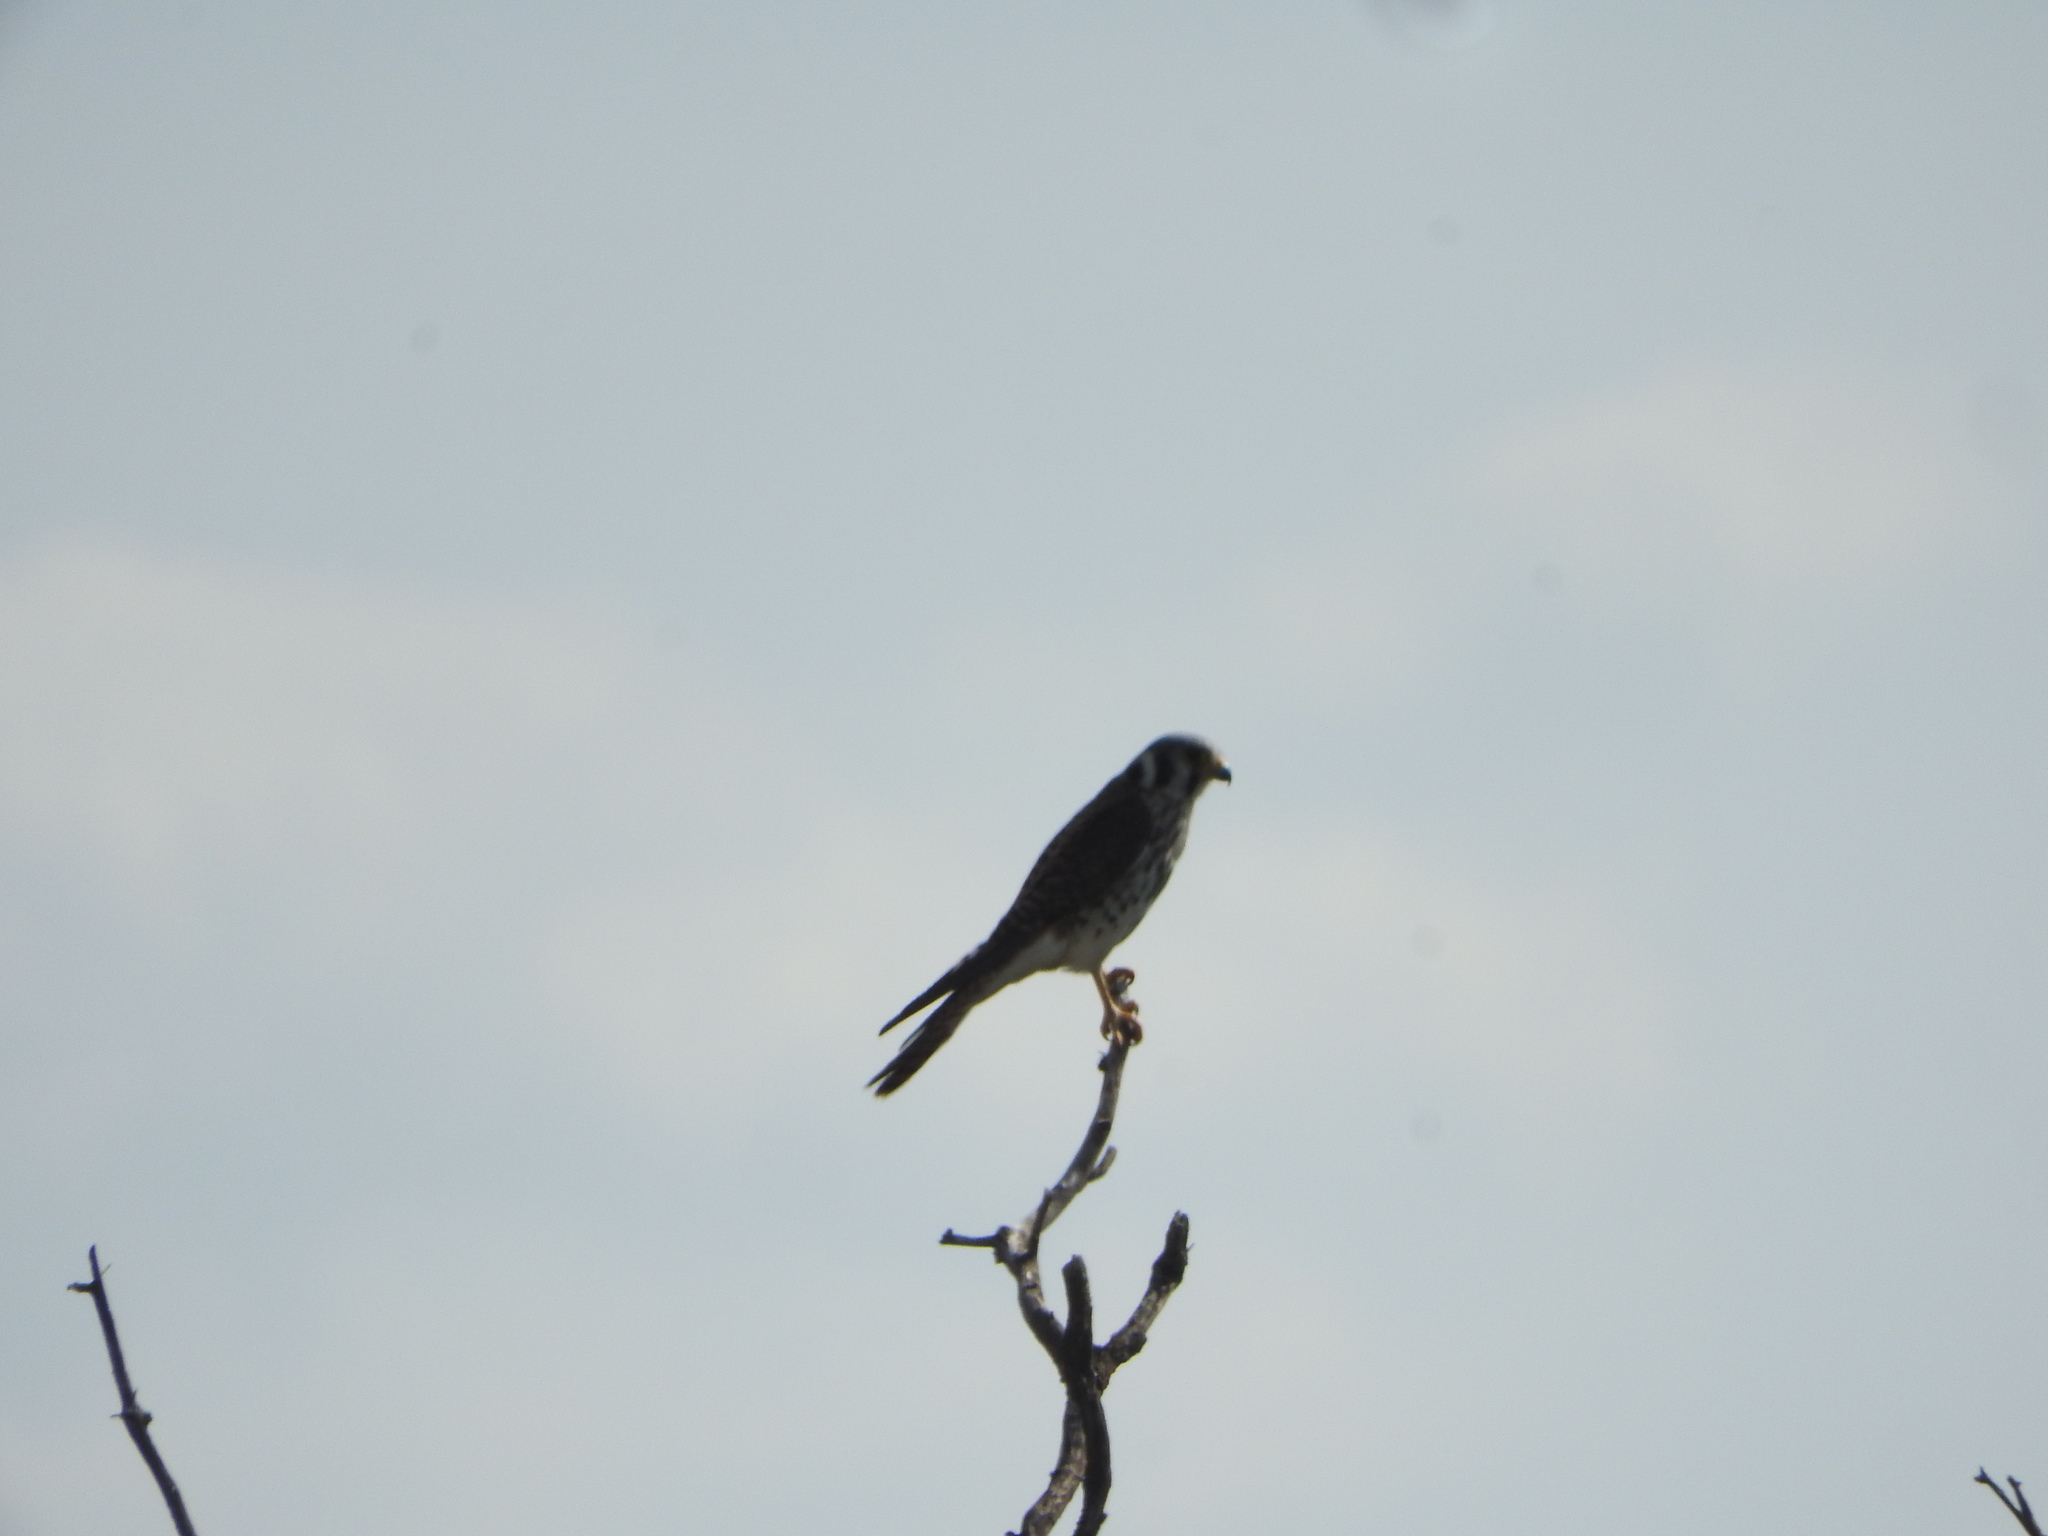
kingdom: Animalia
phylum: Chordata
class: Aves
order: Falconiformes
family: Falconidae
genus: Falco
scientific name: Falco sparverius
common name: American kestrel
